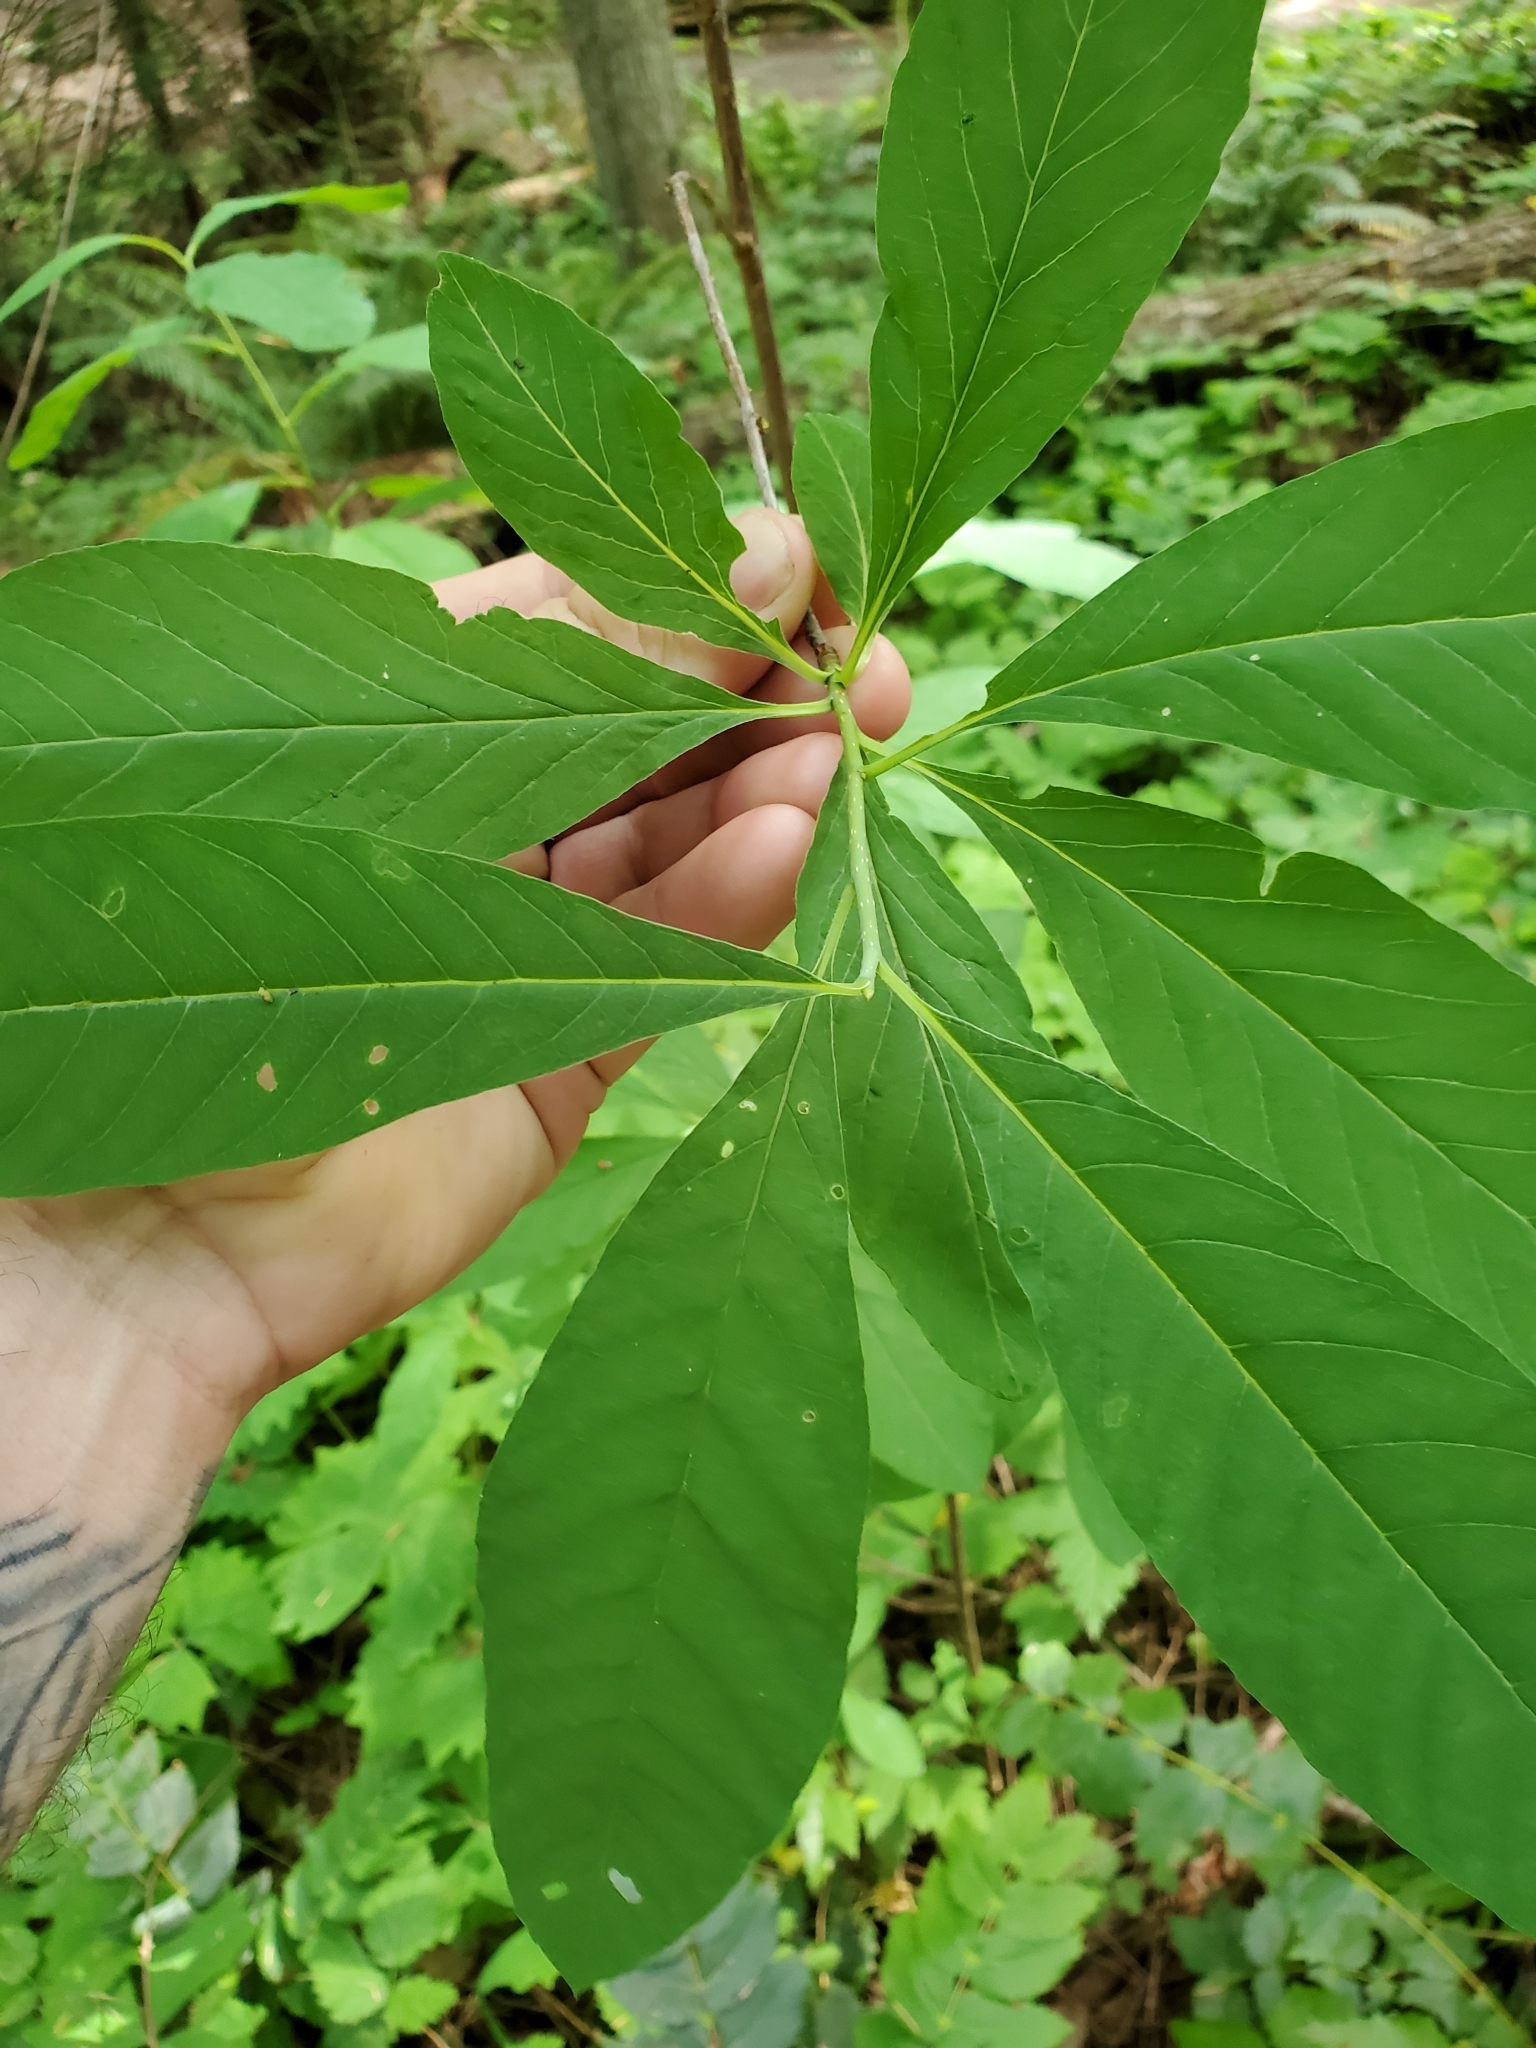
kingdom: Plantae
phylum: Tracheophyta
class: Magnoliopsida
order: Rosales
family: Rosaceae
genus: Oemleria
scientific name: Oemleria cerasiformis
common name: Osoberry
